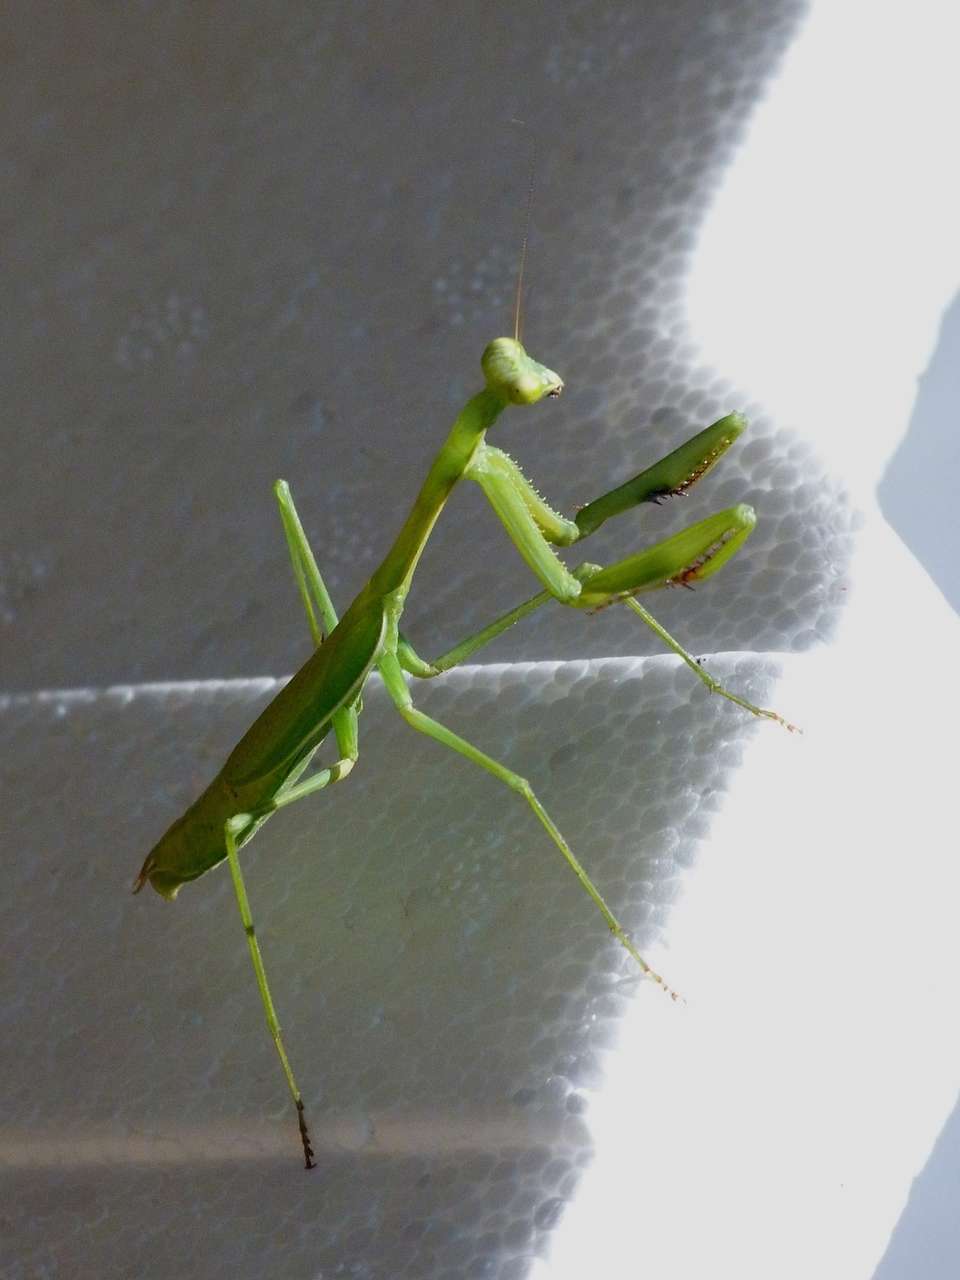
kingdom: Animalia
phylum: Arthropoda
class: Insecta
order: Mantodea
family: Mantidae
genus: Pseudomantis
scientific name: Pseudomantis albofimbriata
